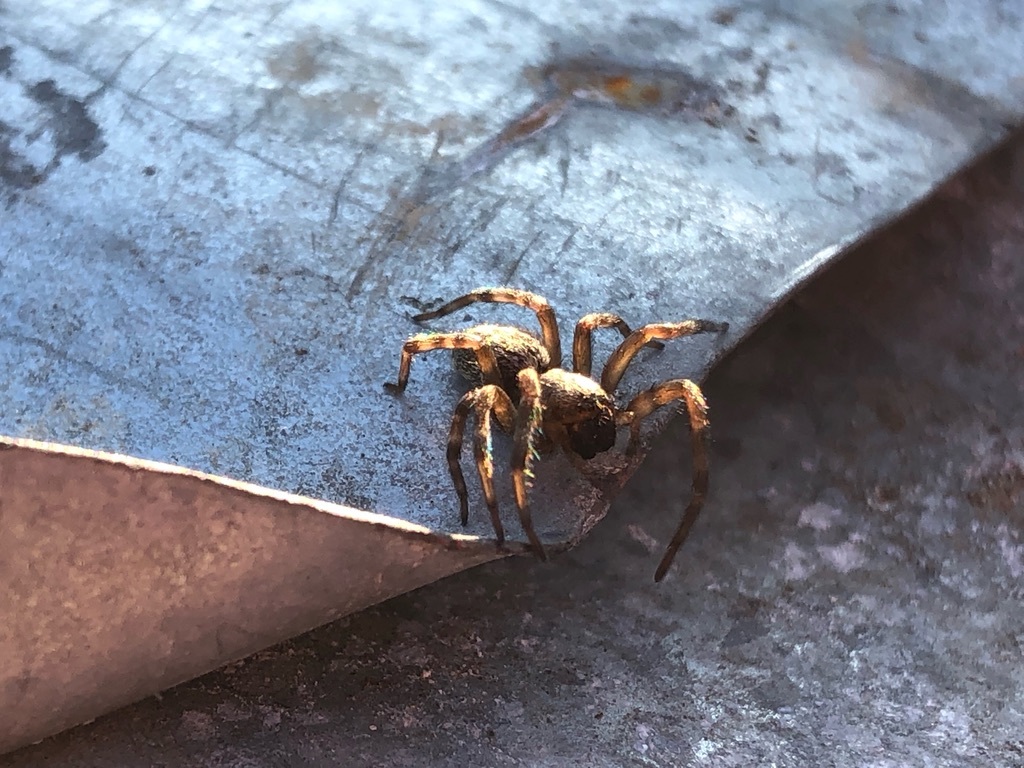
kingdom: Animalia
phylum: Arthropoda
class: Arachnida
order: Araneae
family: Desidae
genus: Badumna
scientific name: Badumna longinqua
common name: Gray house spider
